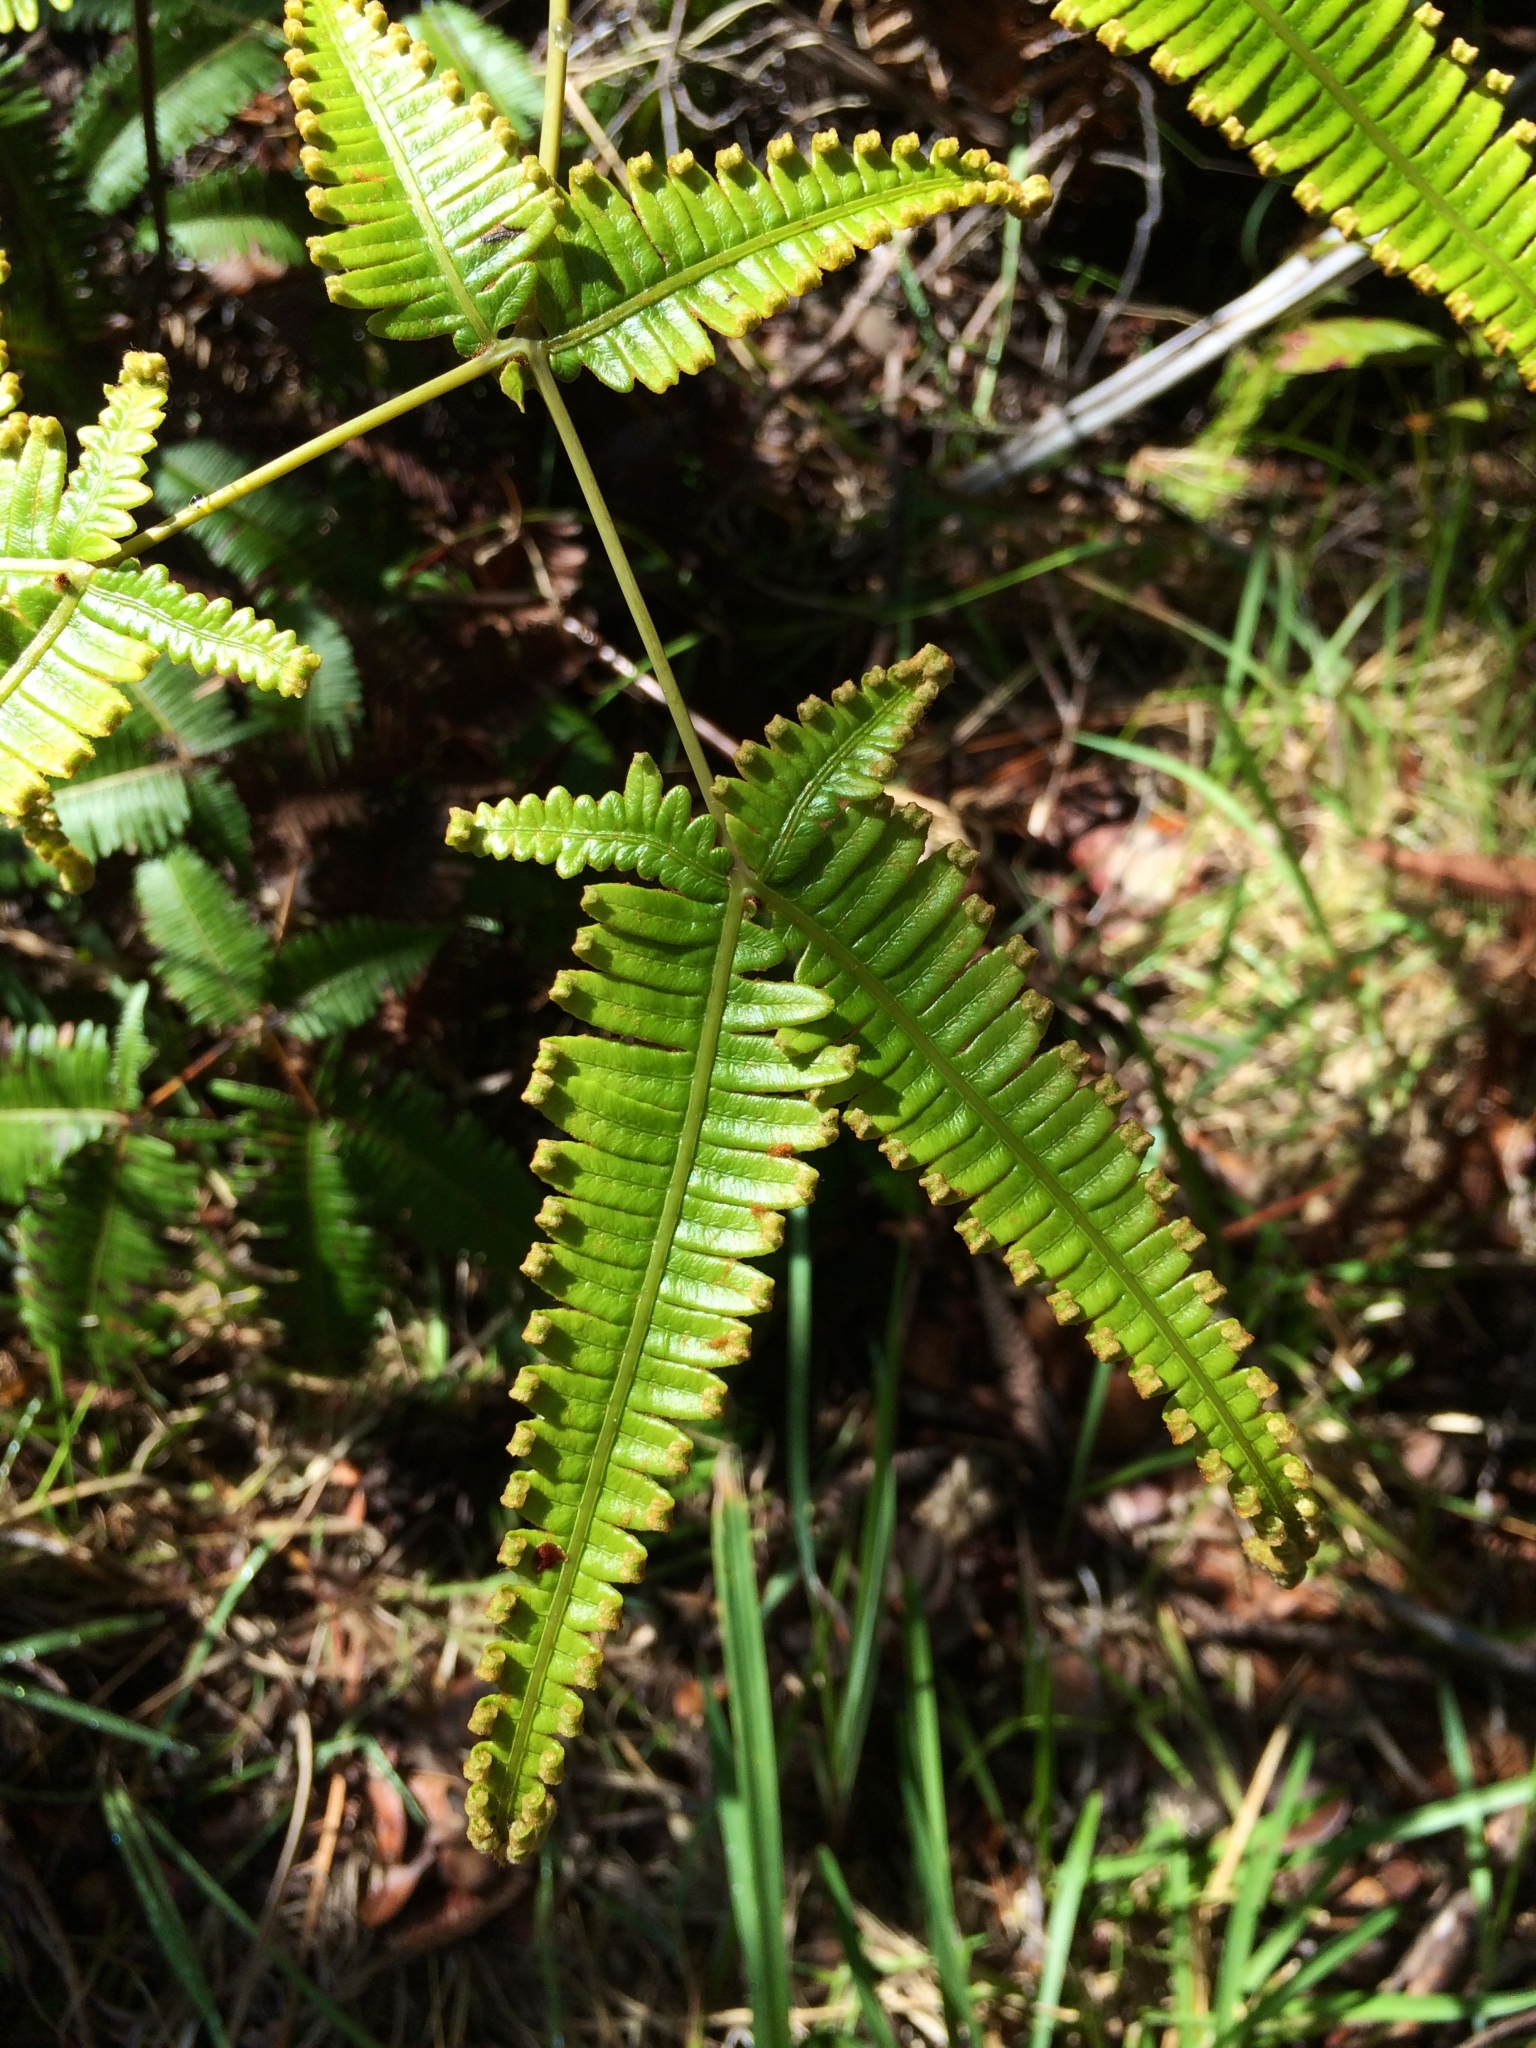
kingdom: Plantae
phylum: Tracheophyta
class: Polypodiopsida
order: Gleicheniales
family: Gleicheniaceae
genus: Dicranopteris
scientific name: Dicranopteris linearis
